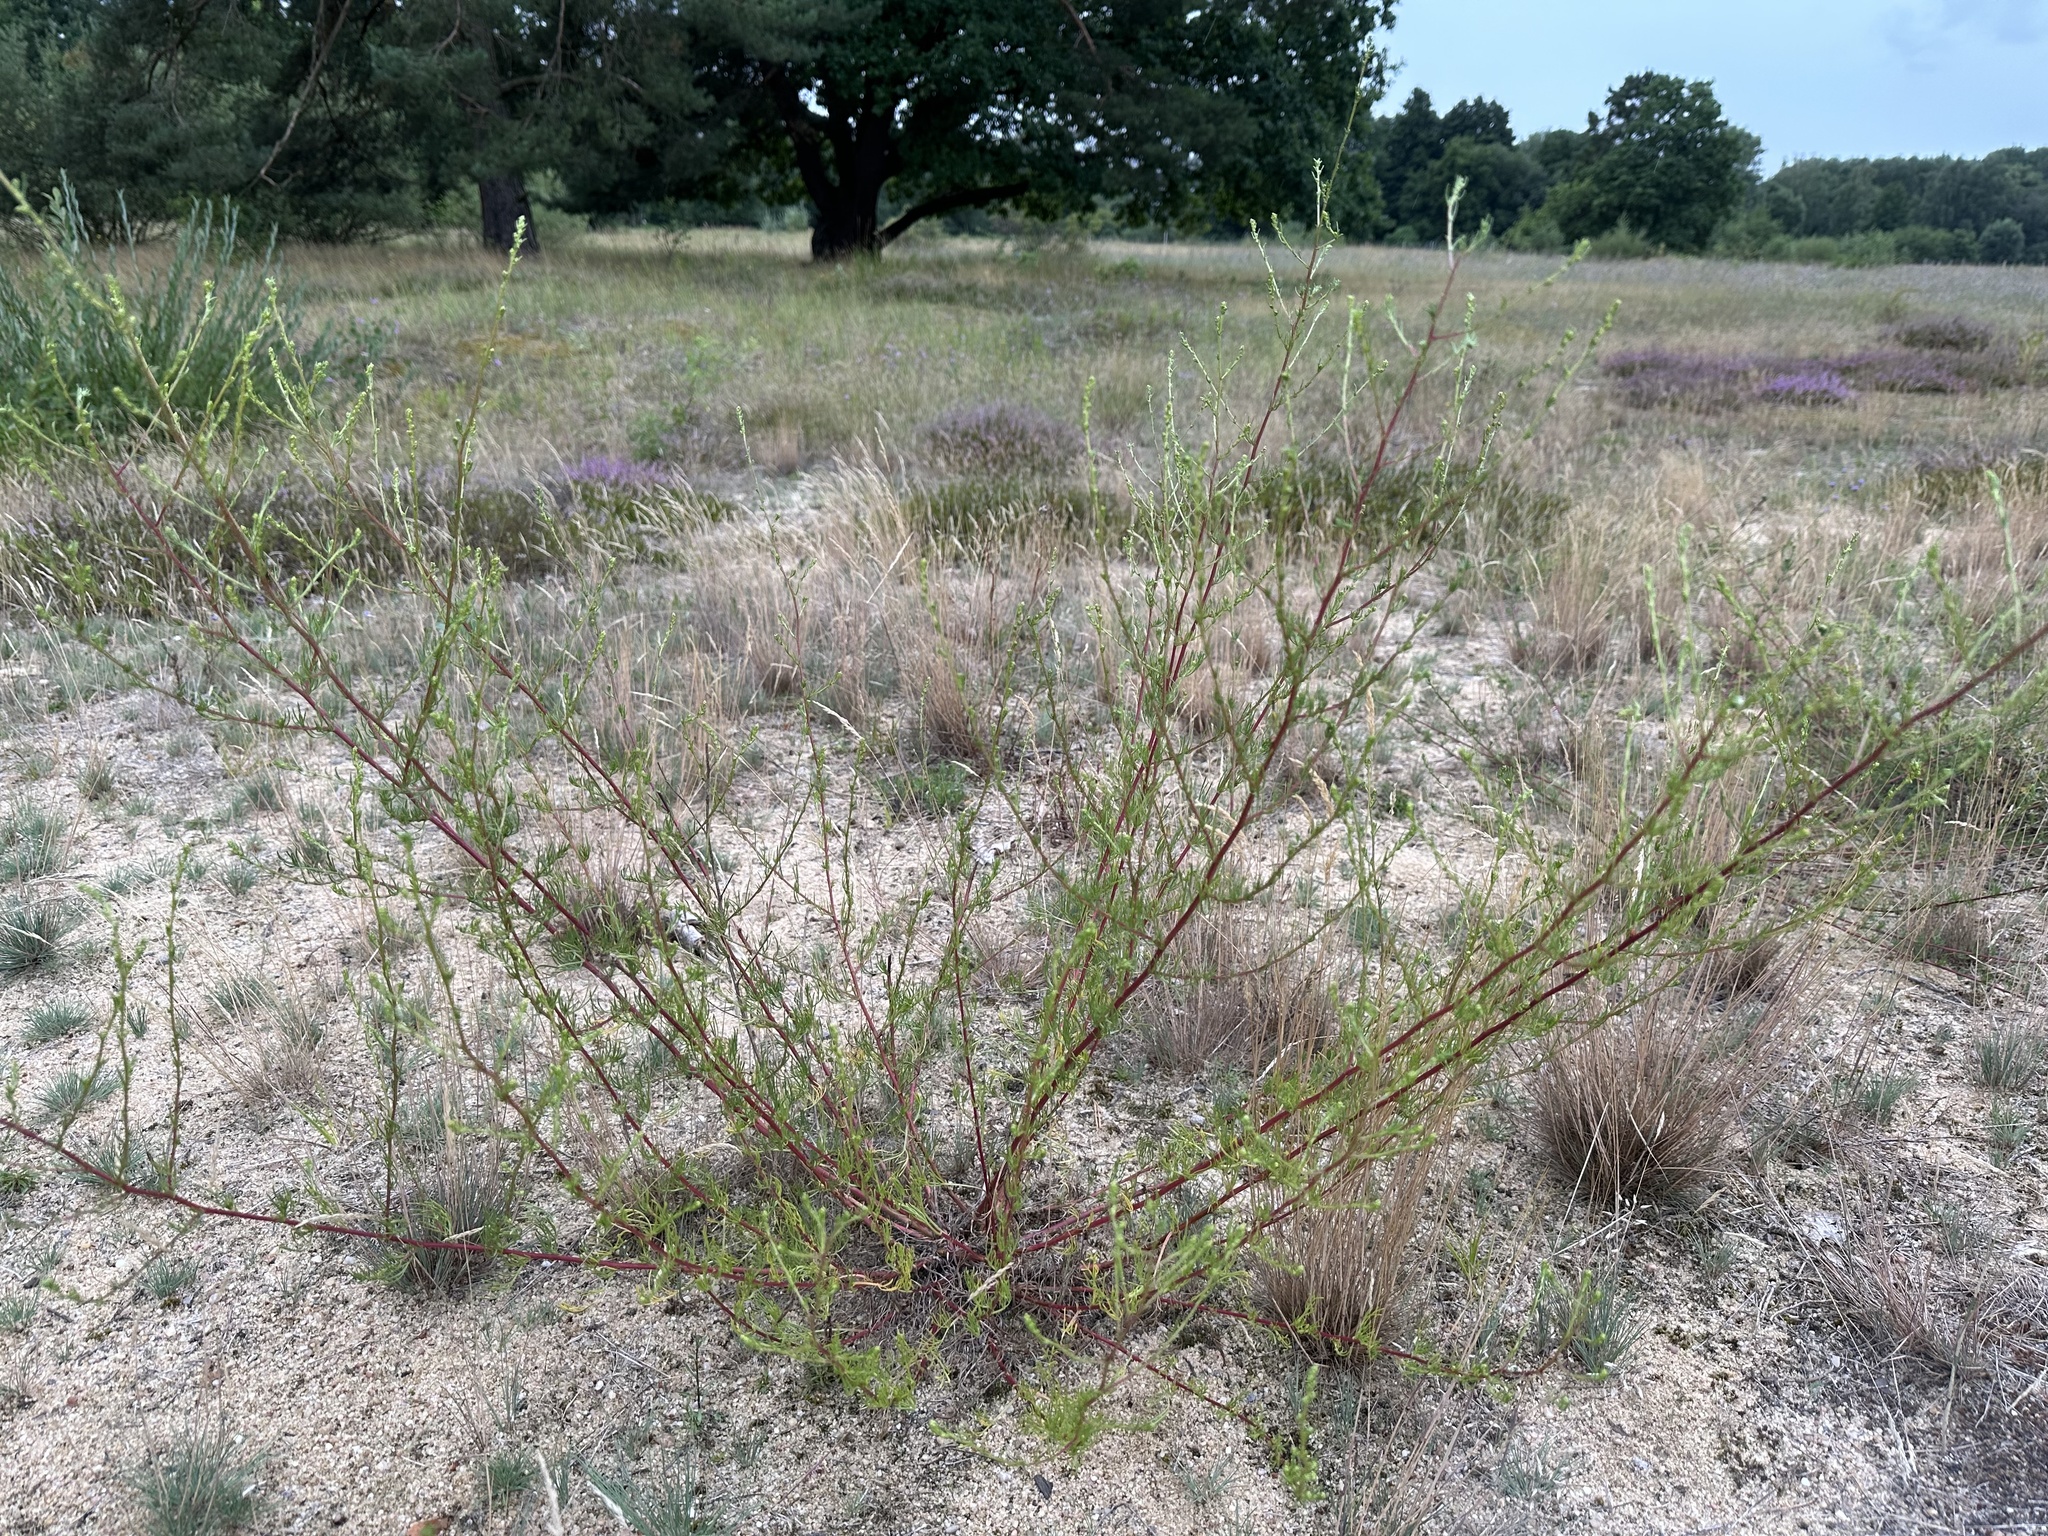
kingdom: Plantae
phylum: Tracheophyta
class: Magnoliopsida
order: Asterales
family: Asteraceae
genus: Artemisia
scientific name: Artemisia campestris
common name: Field wormwood
